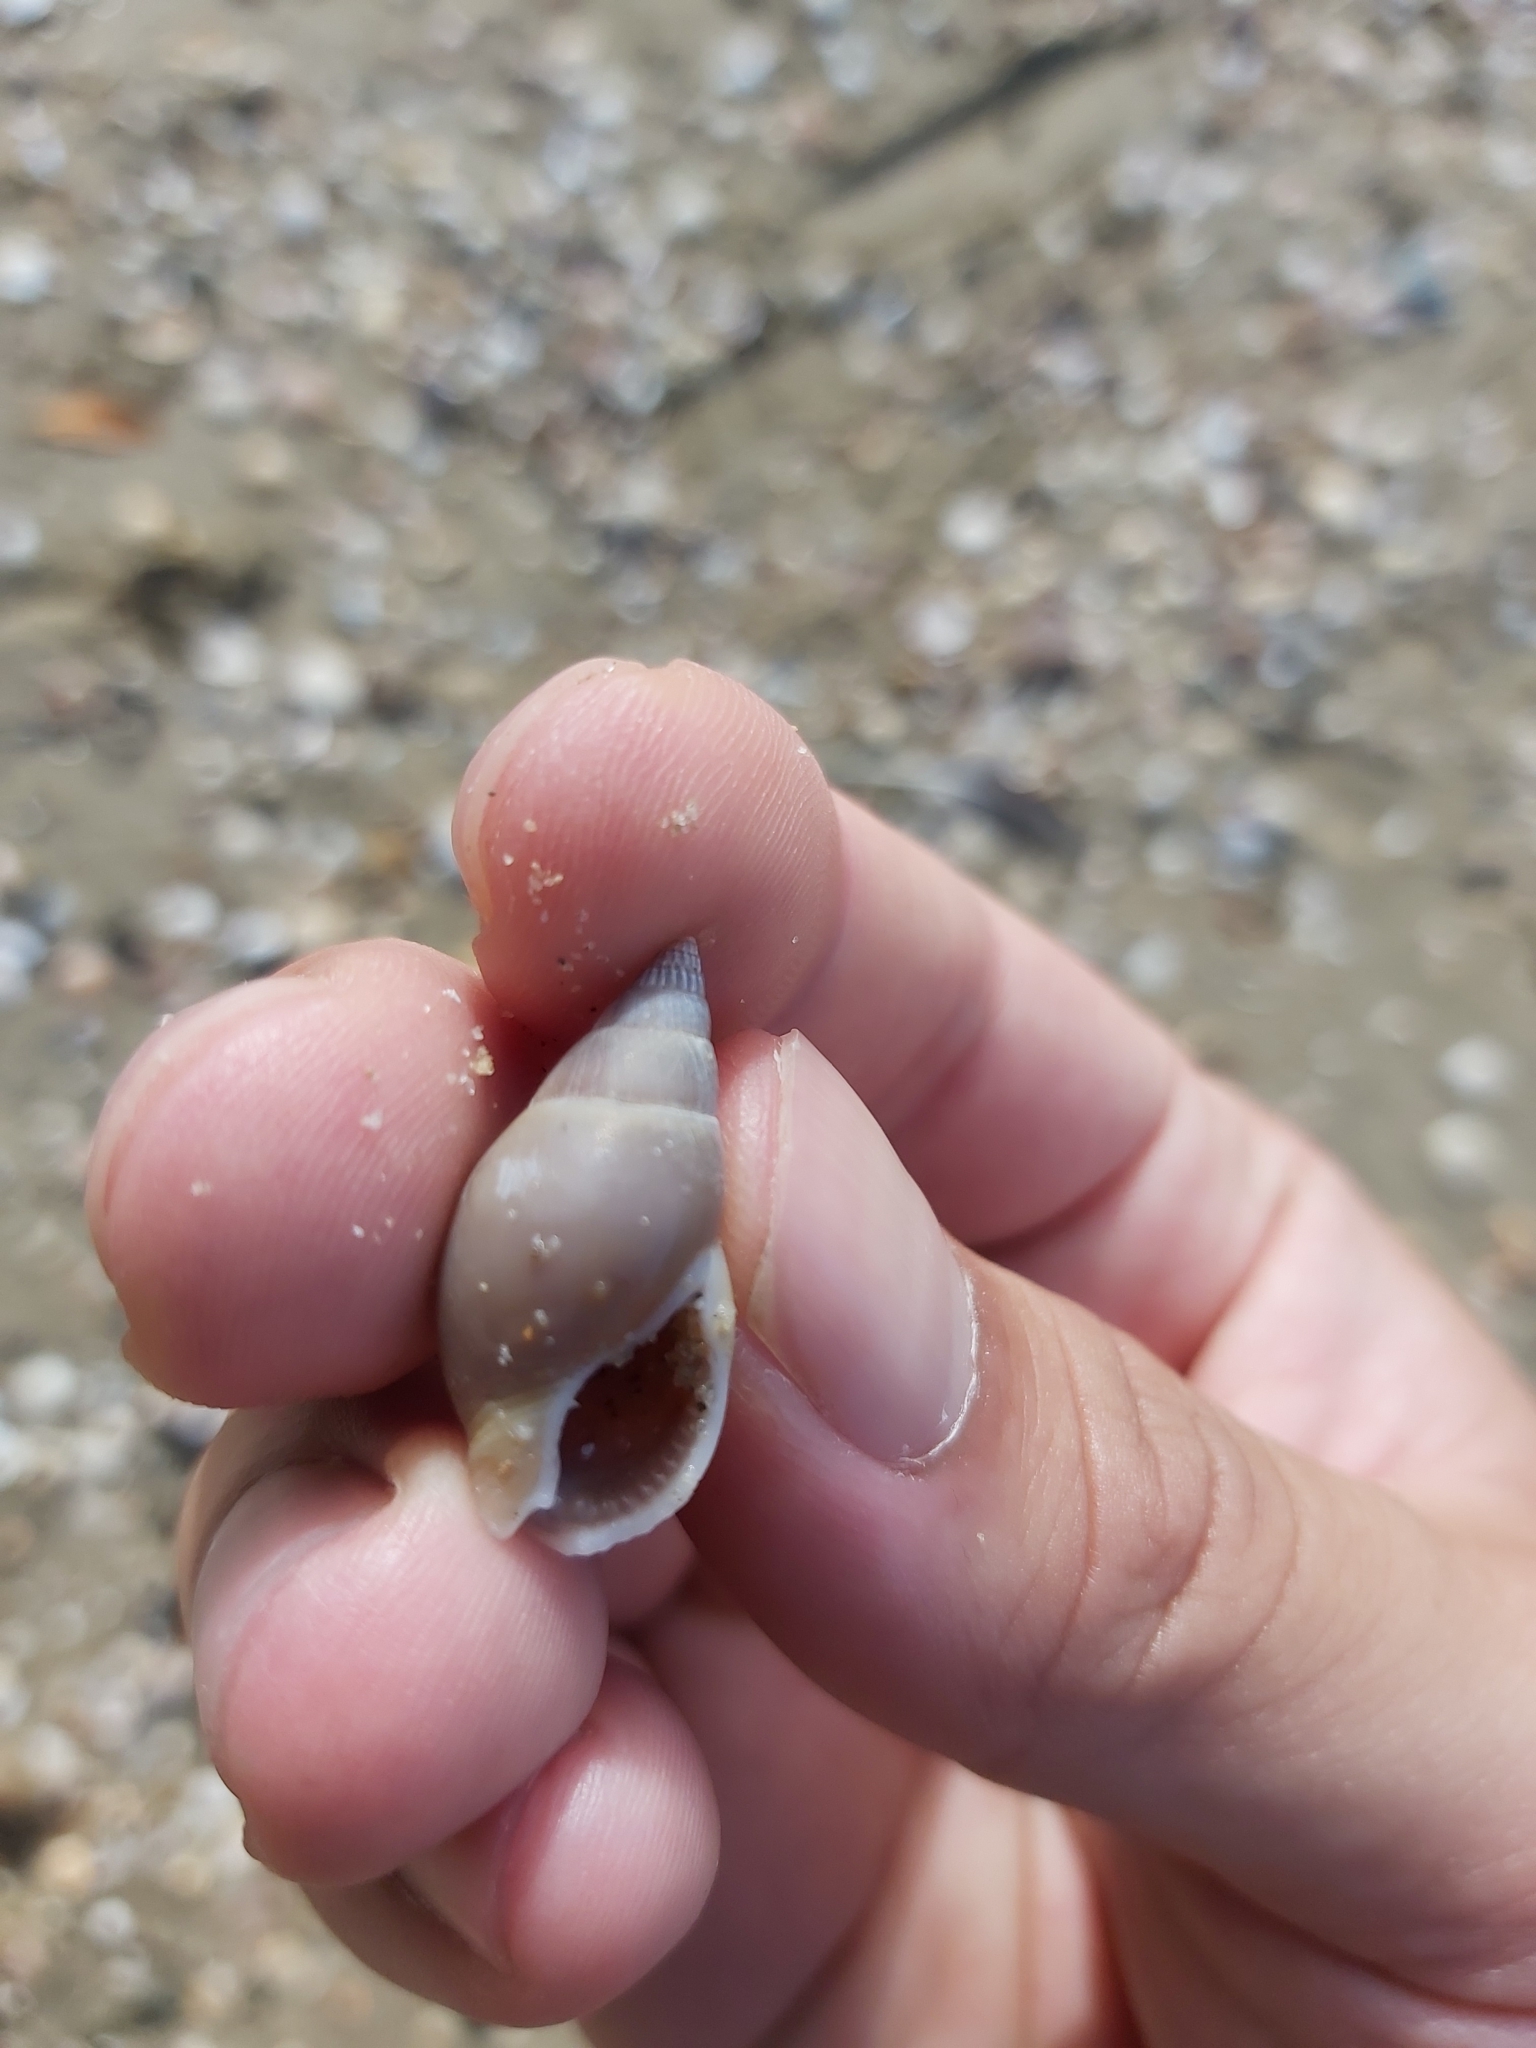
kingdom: Animalia
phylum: Mollusca
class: Gastropoda
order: Neogastropoda
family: Nassariidae
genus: Nassarius
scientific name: Nassarius dorsatus
